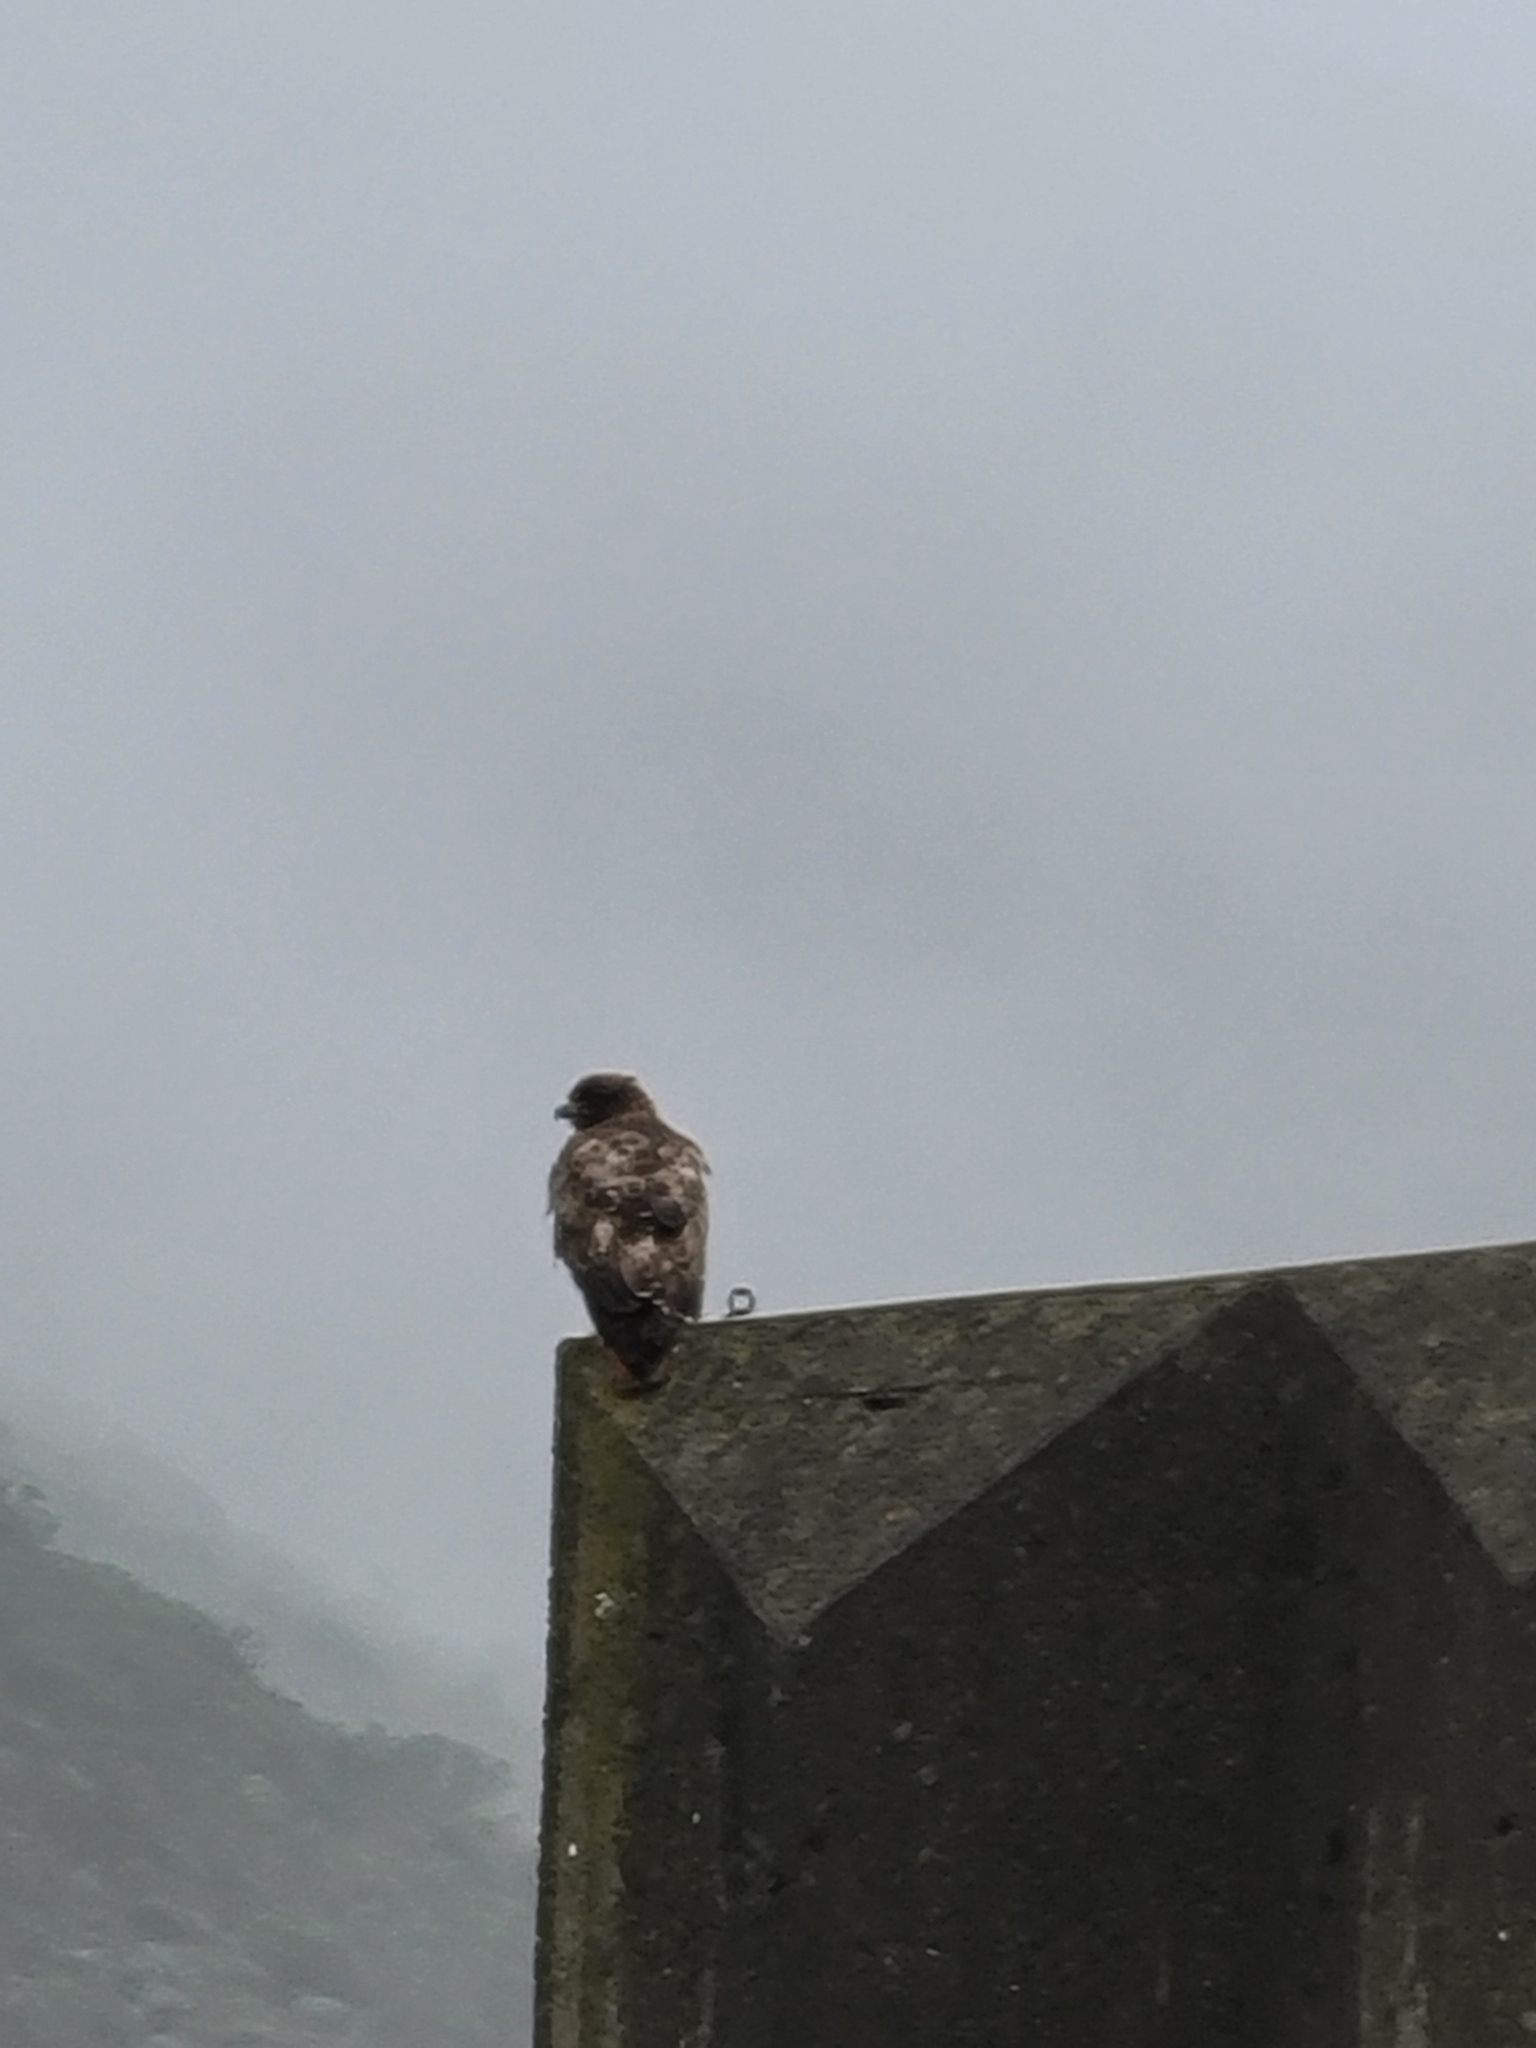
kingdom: Animalia
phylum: Chordata
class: Aves
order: Accipitriformes
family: Accipitridae
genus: Buteo
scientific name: Buteo jamaicensis
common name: Red-tailed hawk
